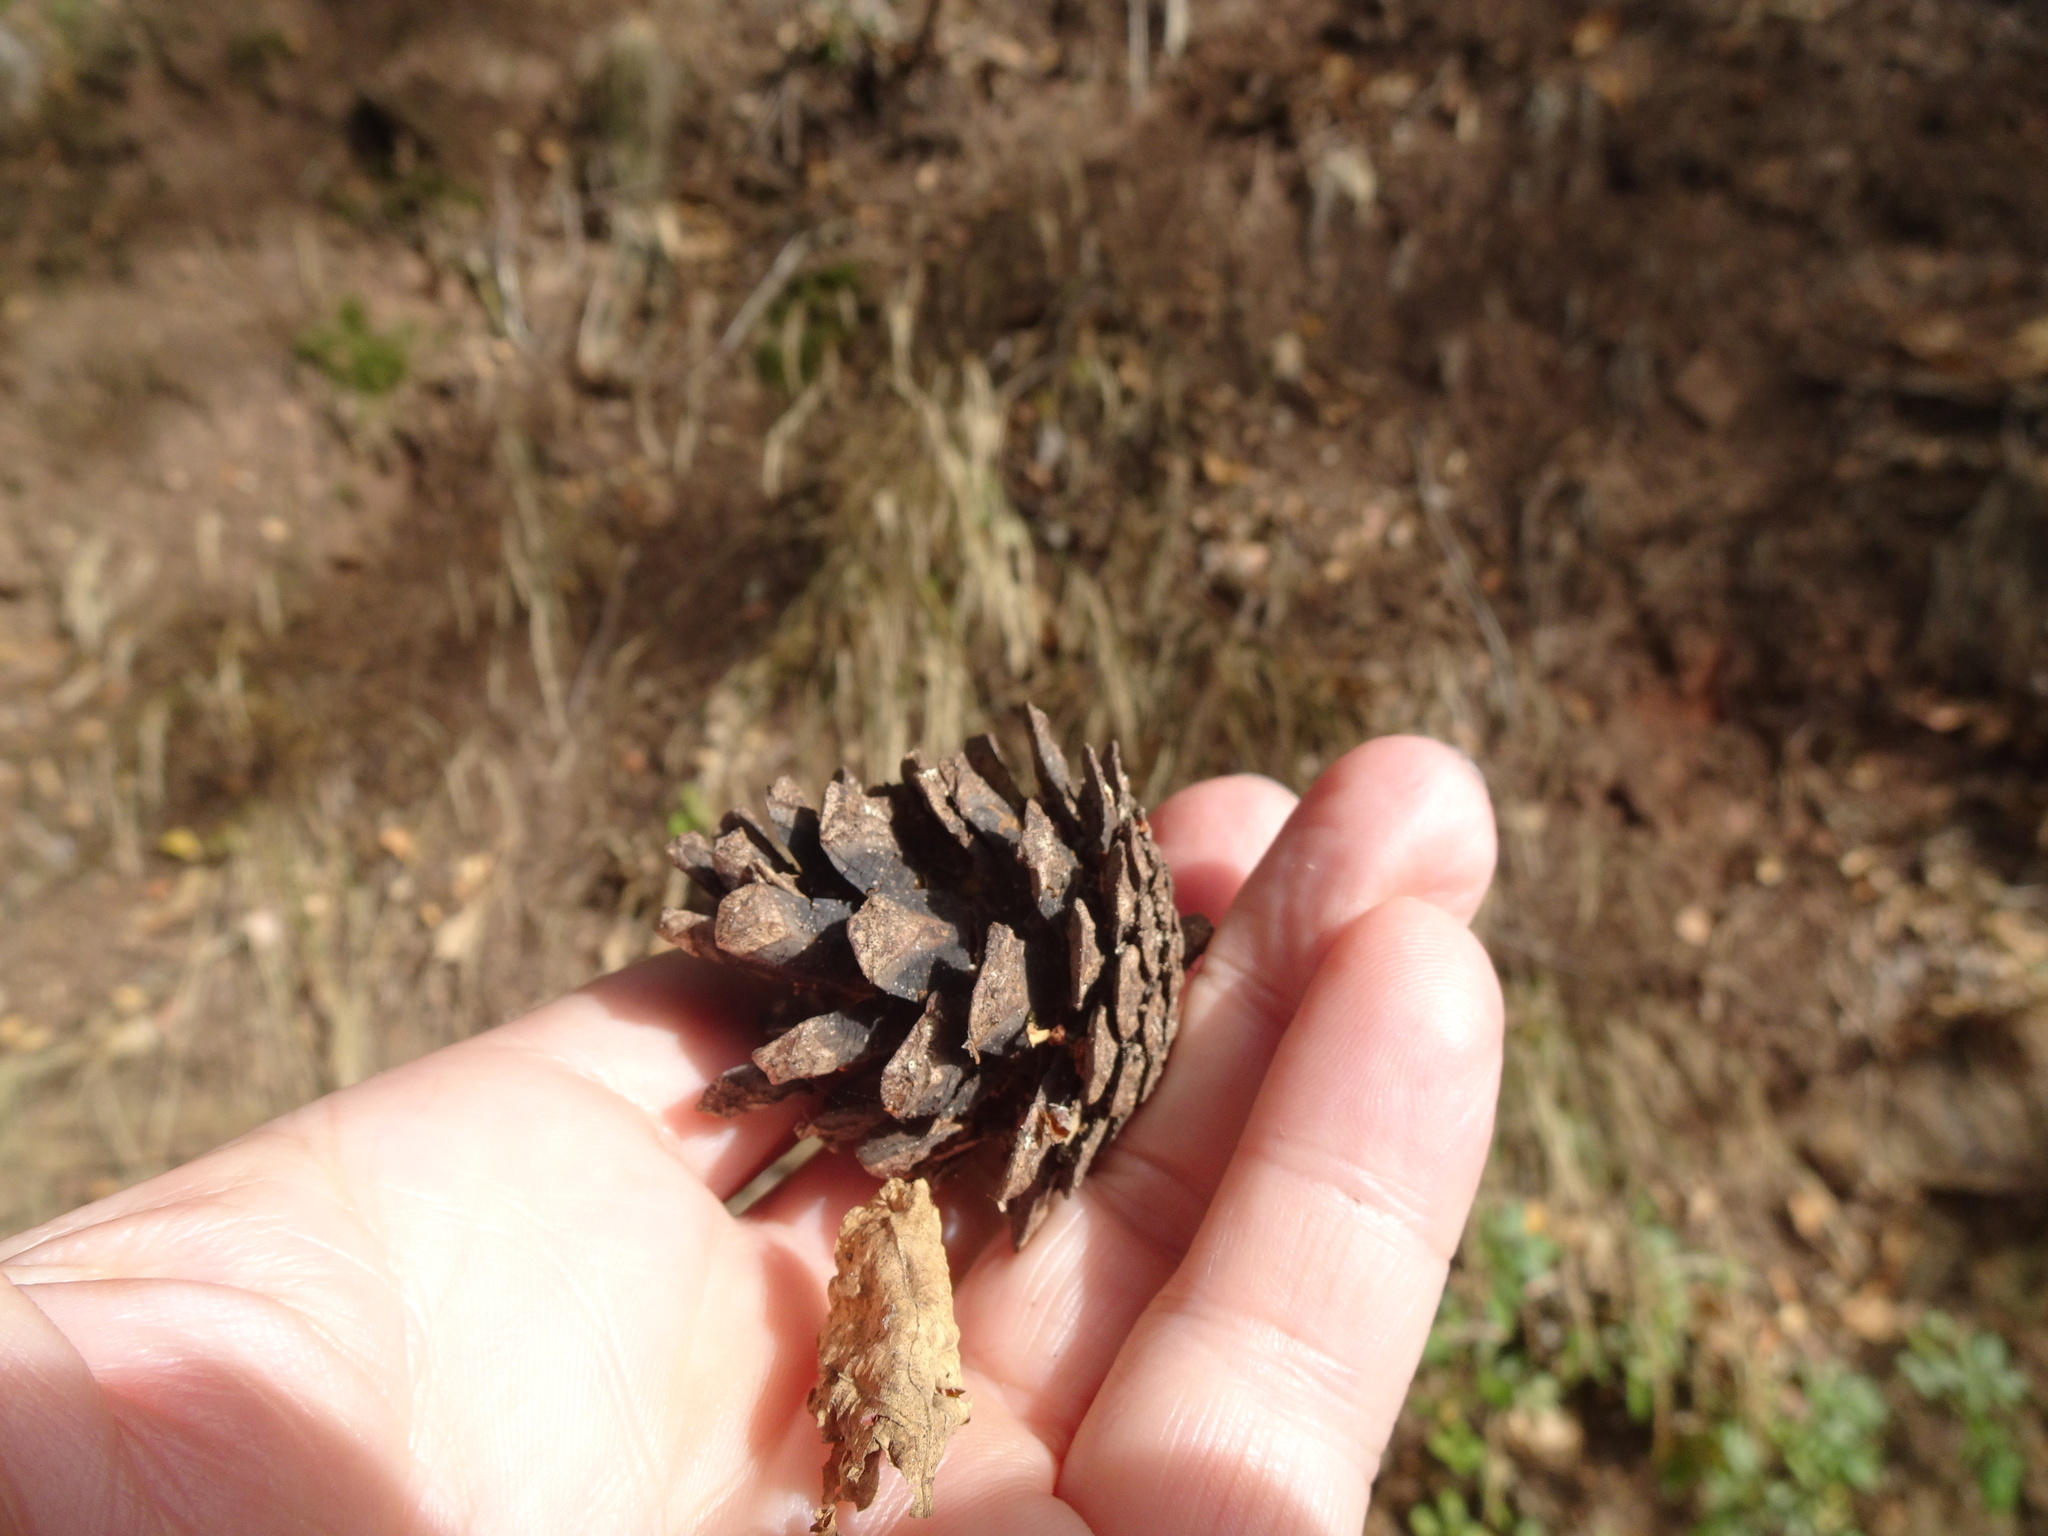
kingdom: Plantae
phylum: Tracheophyta
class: Pinopsida
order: Pinales
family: Pinaceae
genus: Pinus
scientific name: Pinus sylvestris
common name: Scots pine
